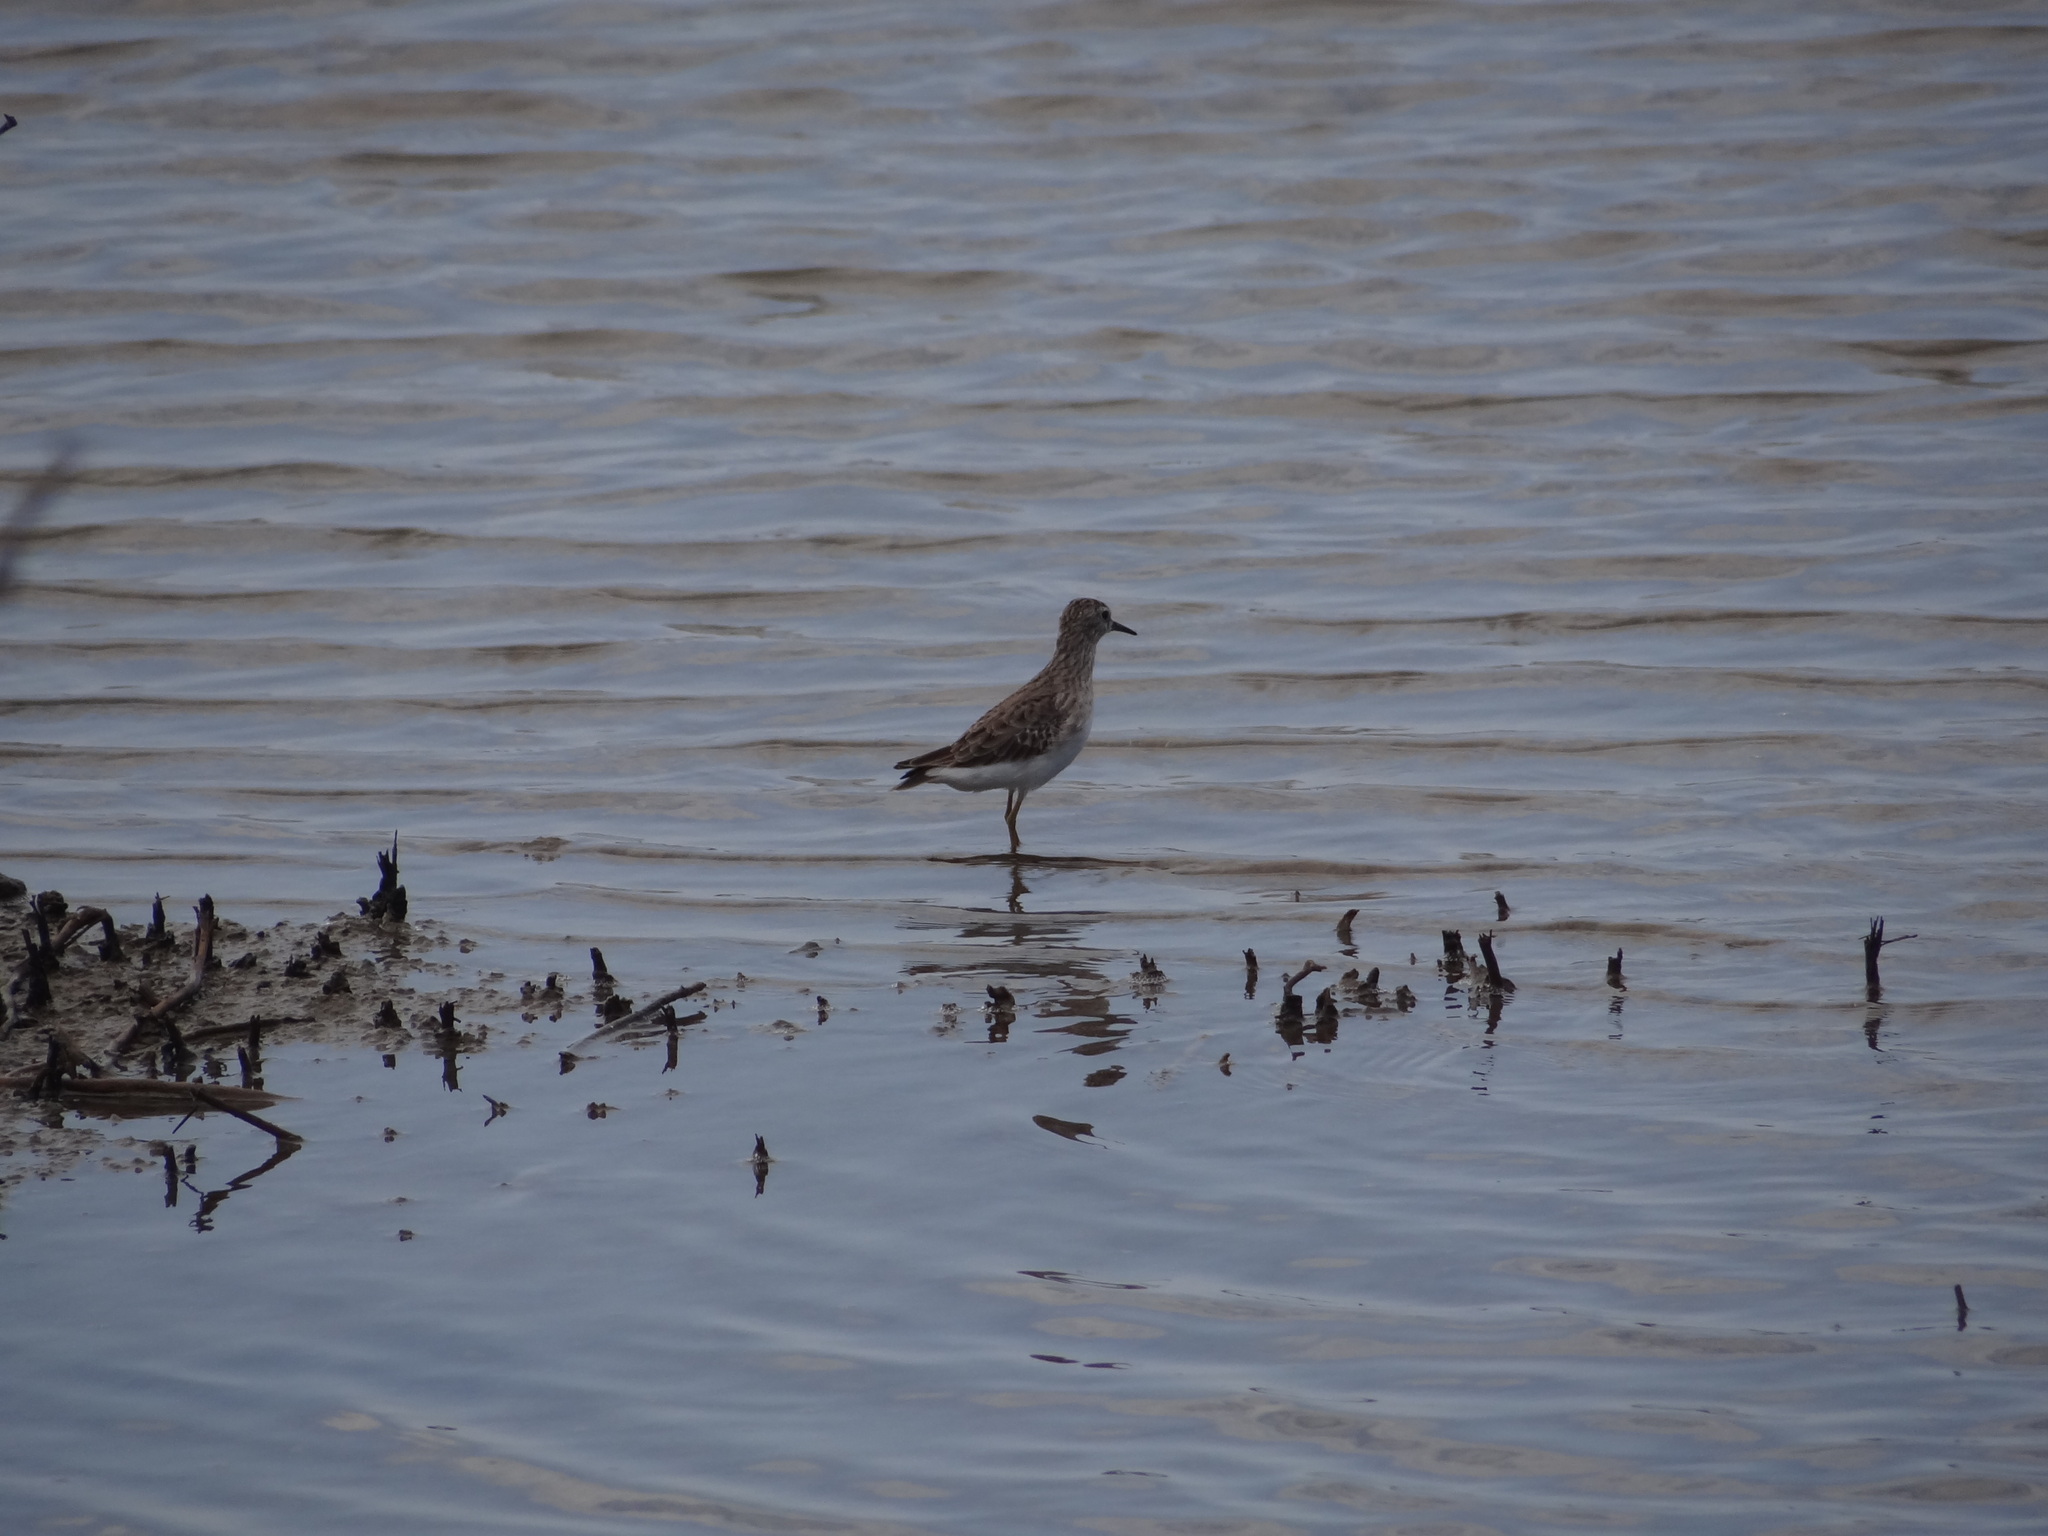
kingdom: Animalia
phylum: Chordata
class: Aves
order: Charadriiformes
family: Scolopacidae
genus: Calidris
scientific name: Calidris subminuta
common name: Long-toed stint
